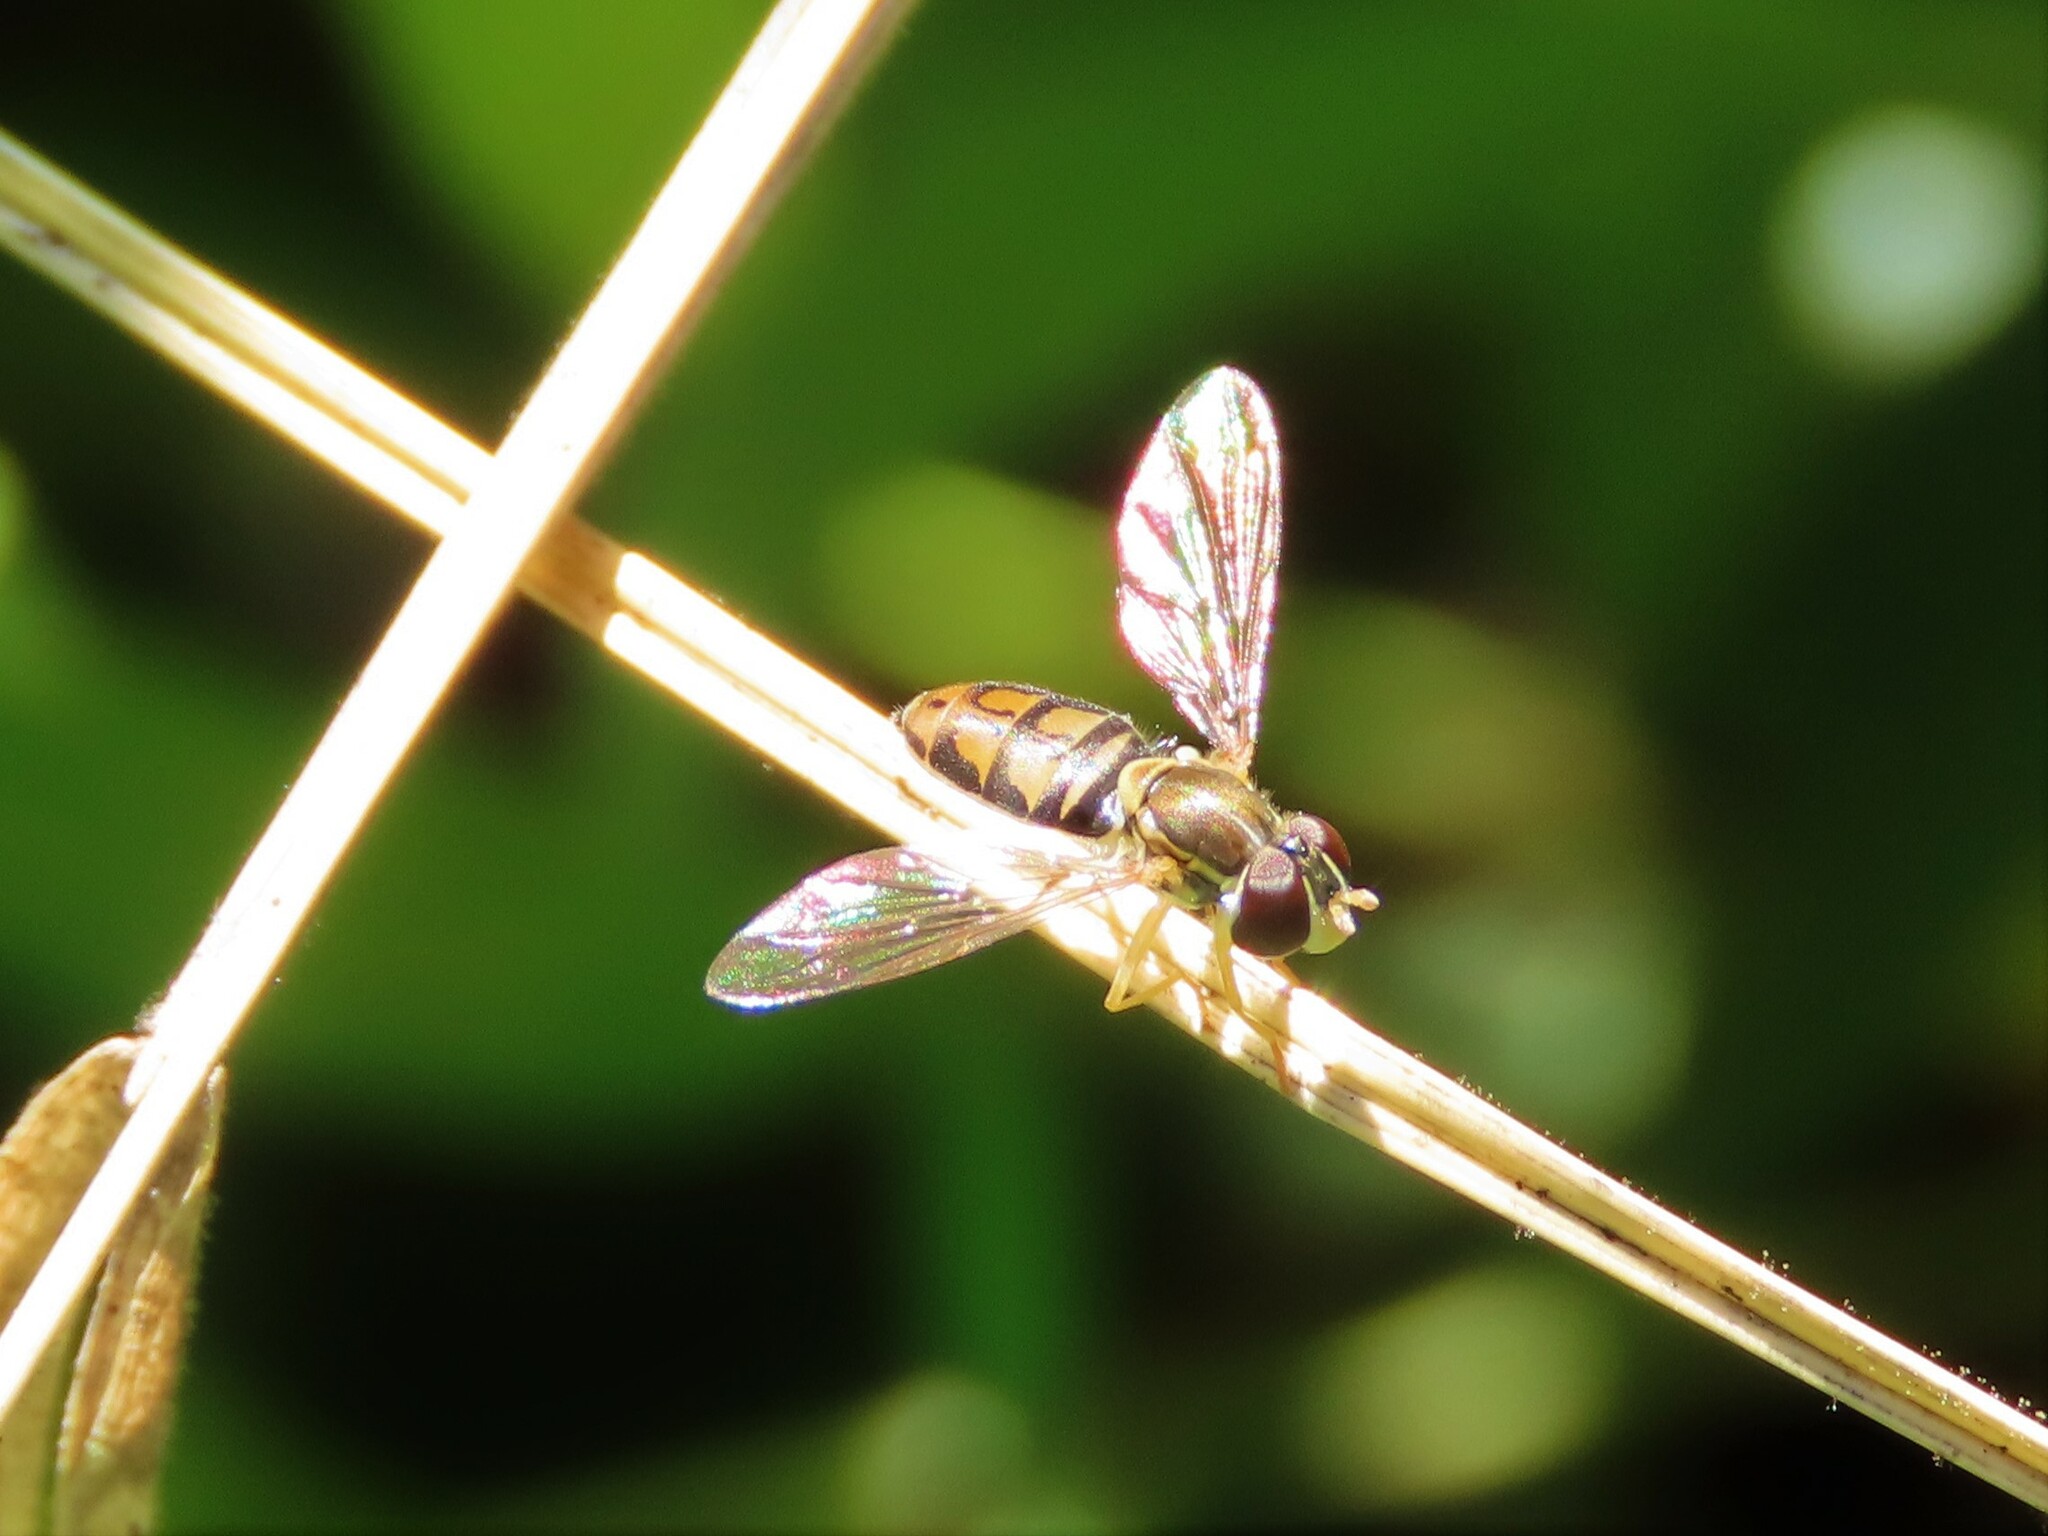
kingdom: Animalia
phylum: Arthropoda
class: Insecta
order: Diptera
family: Syrphidae
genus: Toxomerus
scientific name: Toxomerus marginatus
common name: Syrphid fly
